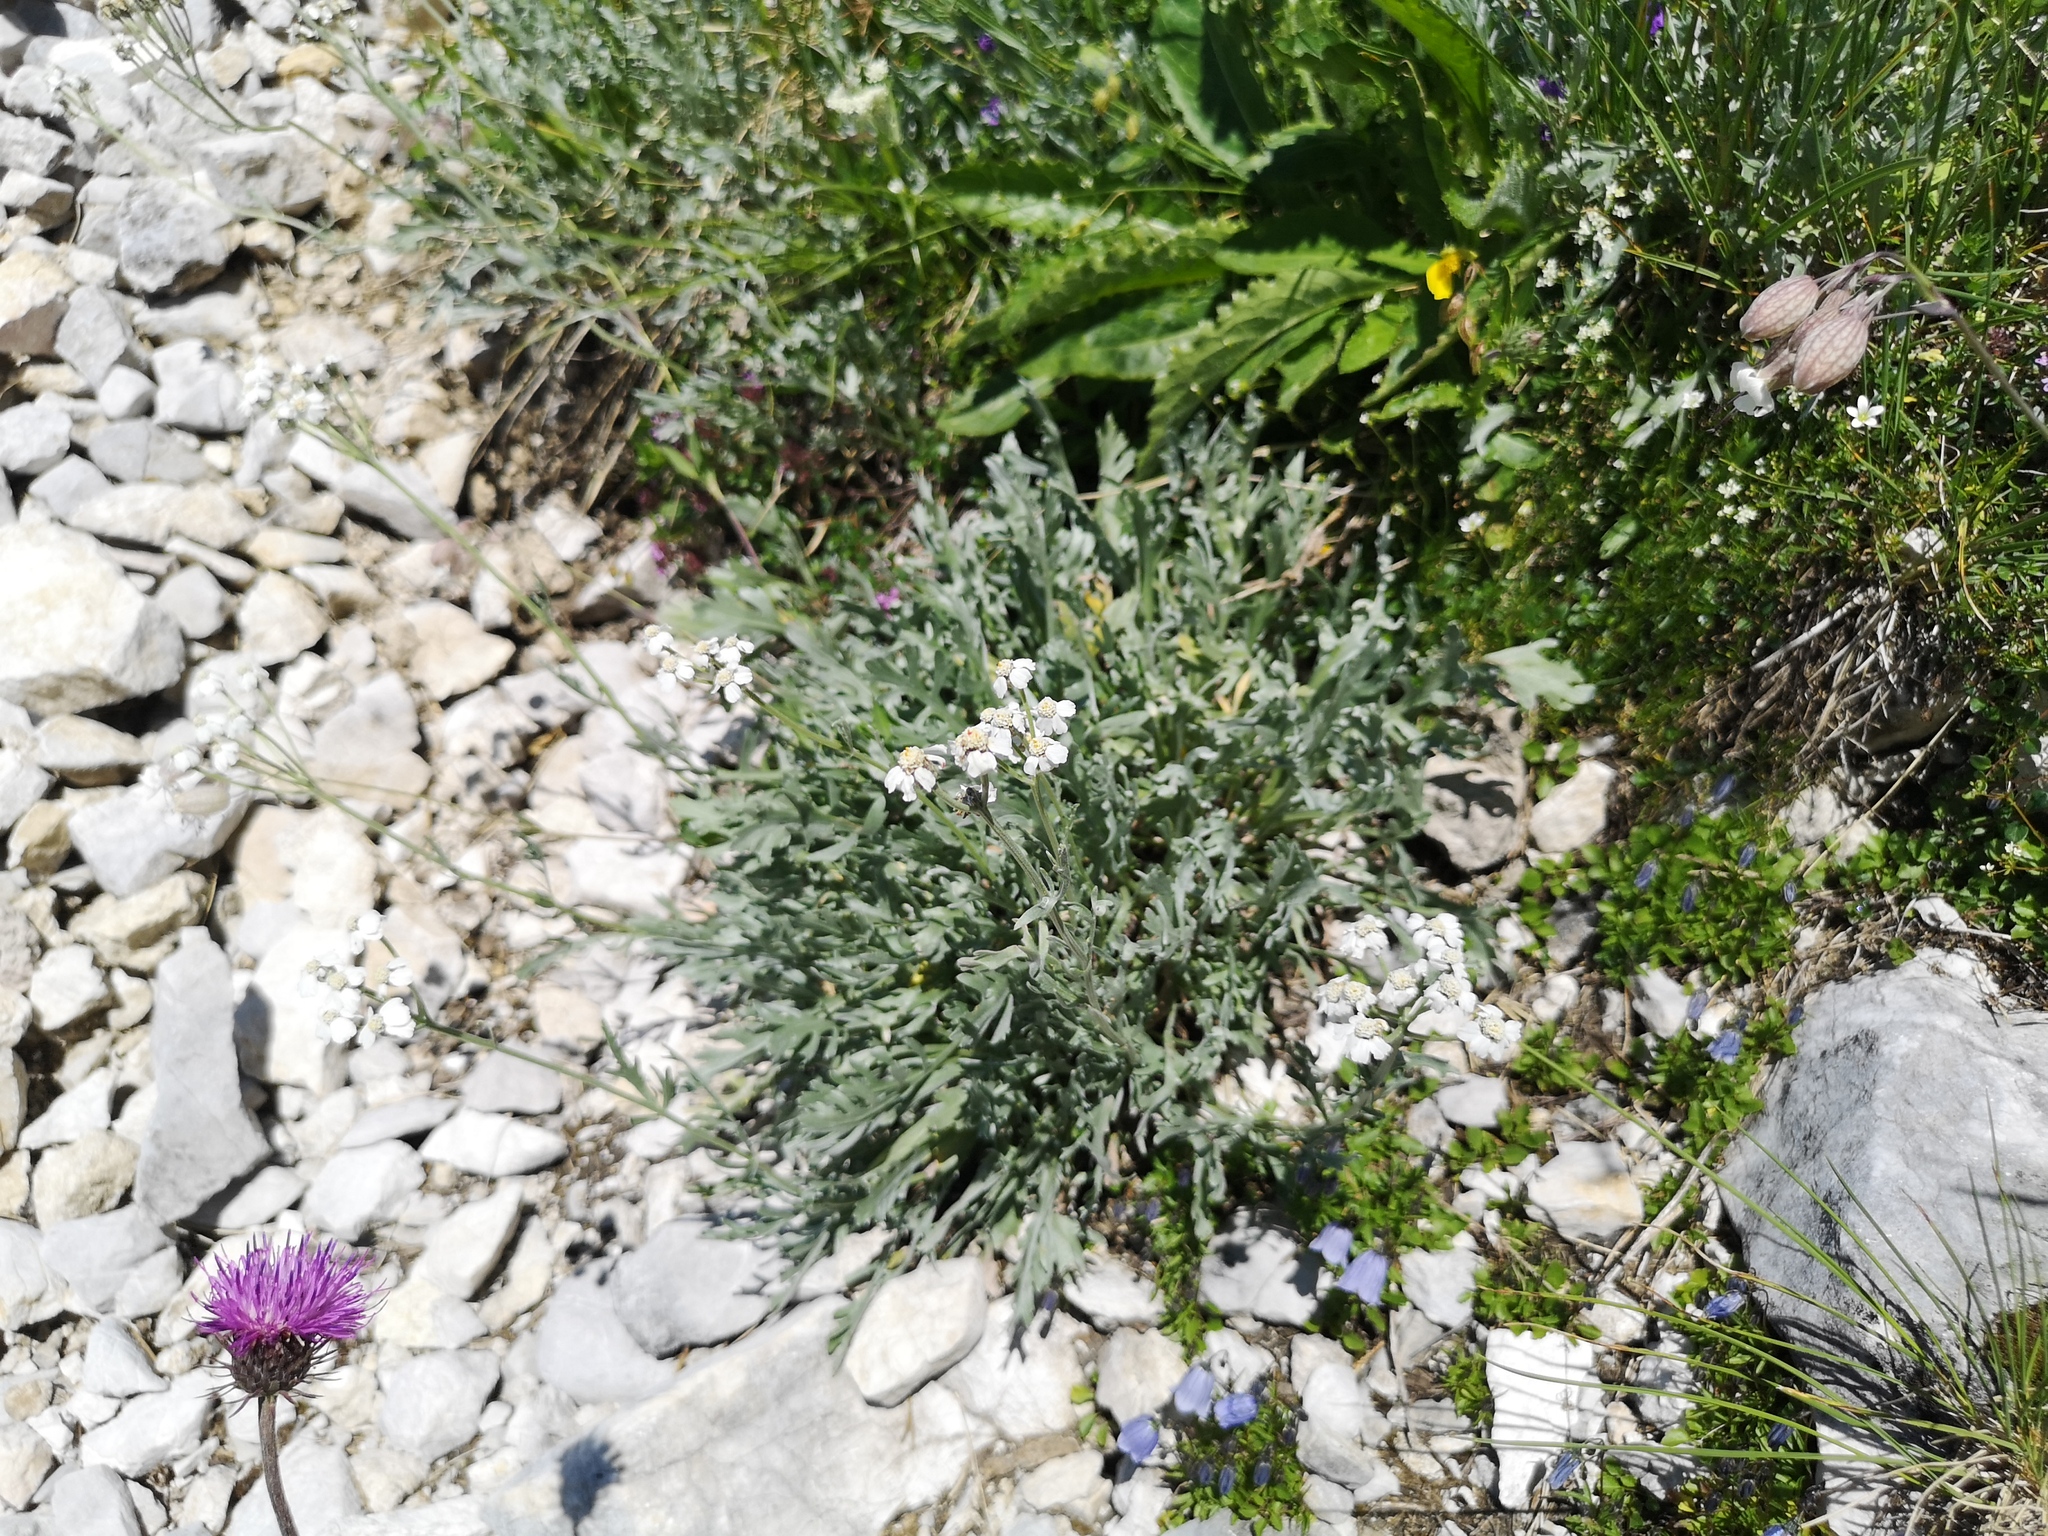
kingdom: Plantae
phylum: Tracheophyta
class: Magnoliopsida
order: Asterales
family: Asteraceae
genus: Achillea
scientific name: Achillea clavennae
